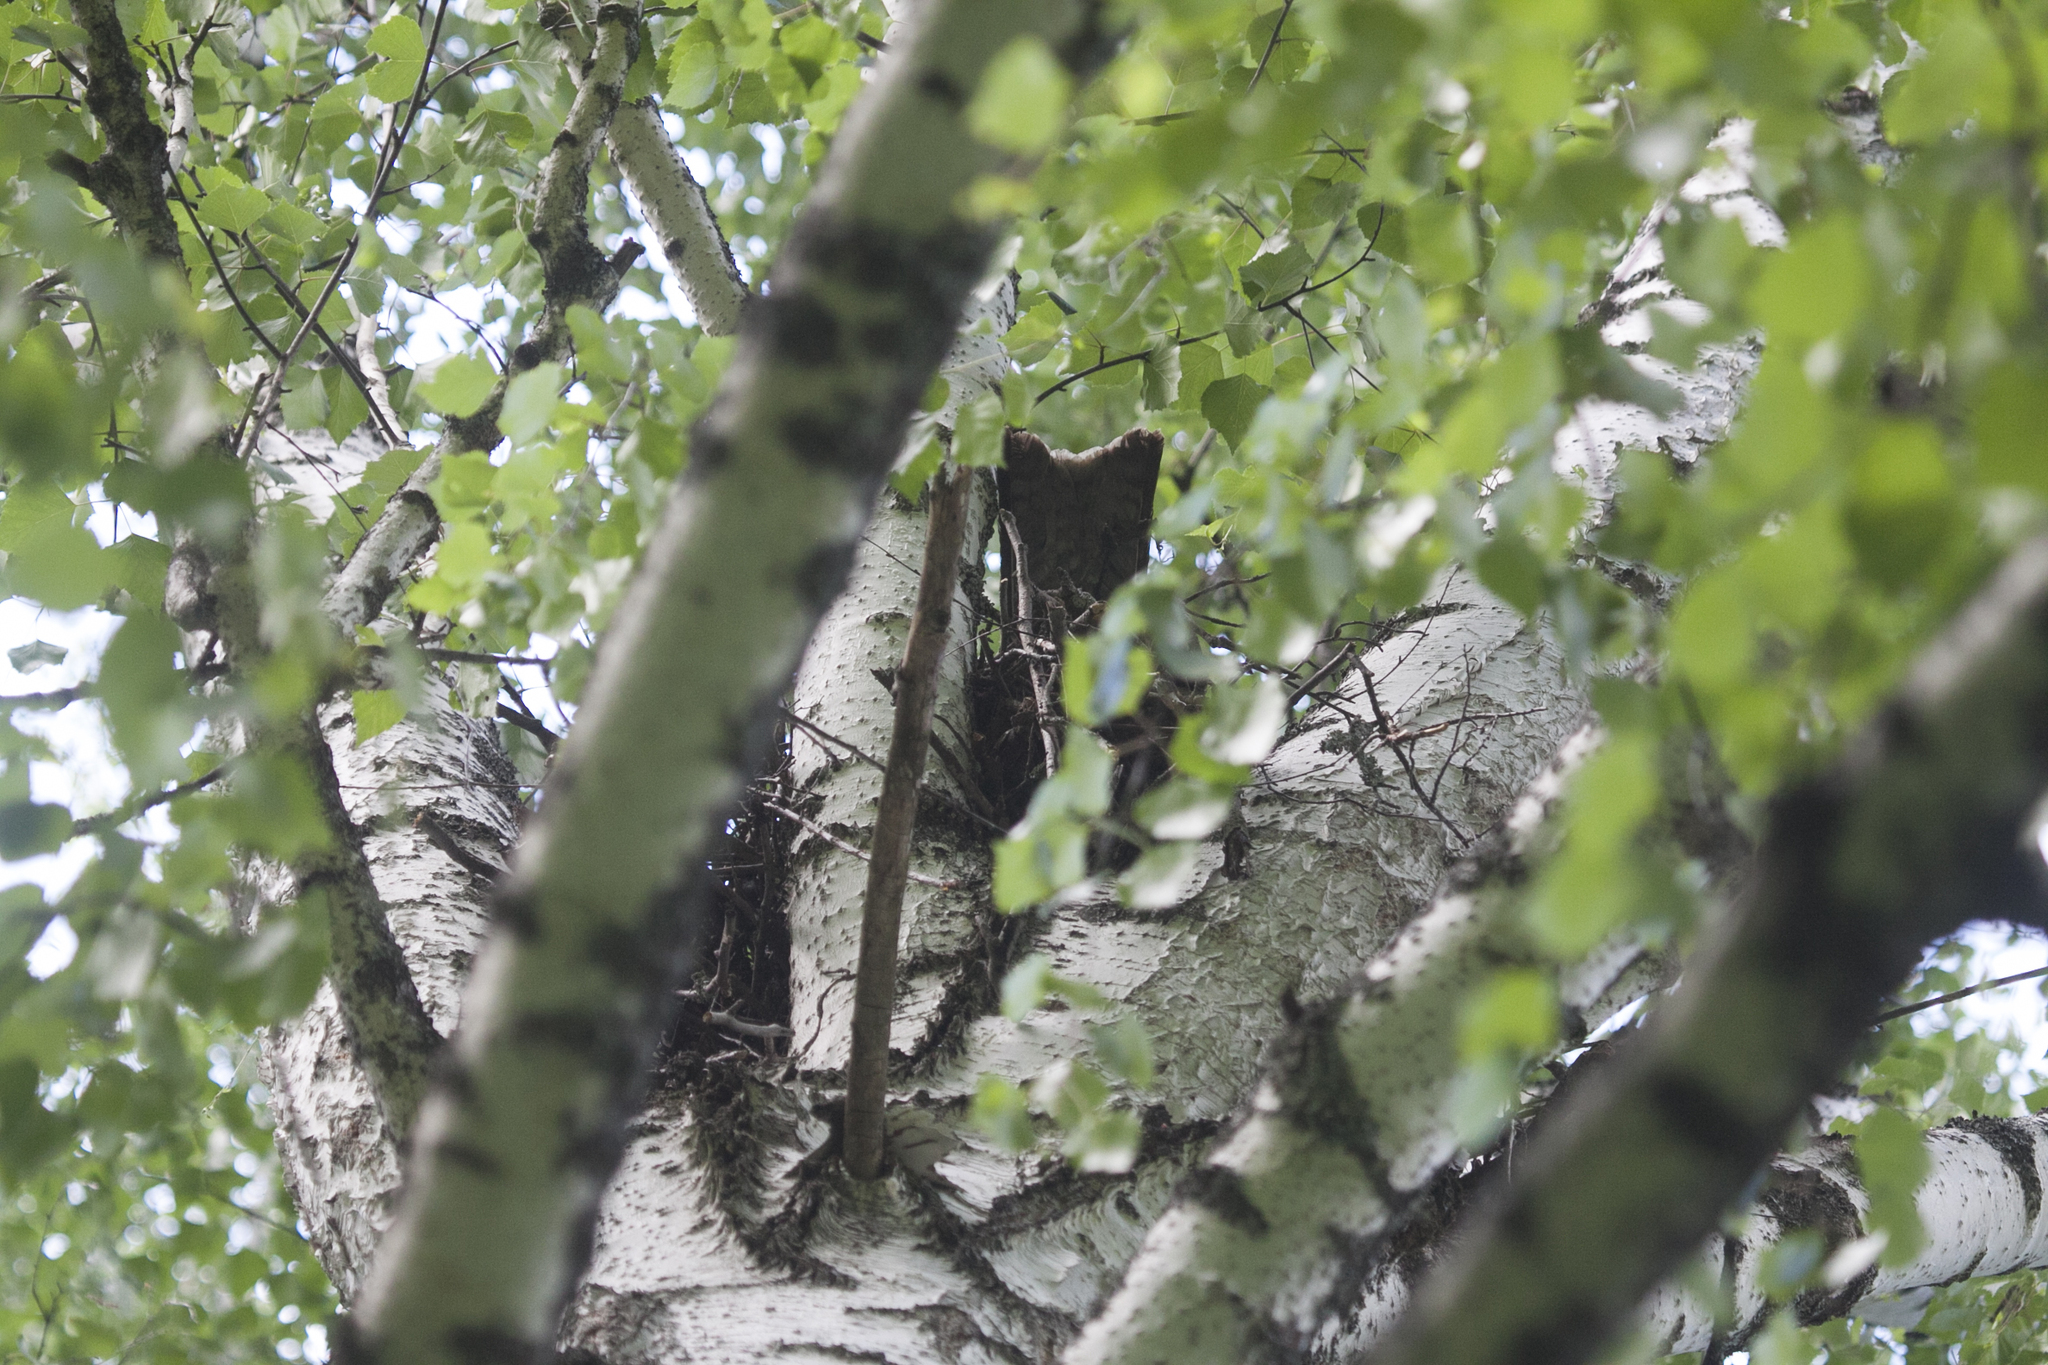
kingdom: Animalia
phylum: Chordata
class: Aves
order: Accipitriformes
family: Accipitridae
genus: Milvus
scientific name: Milvus migrans
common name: Black kite
